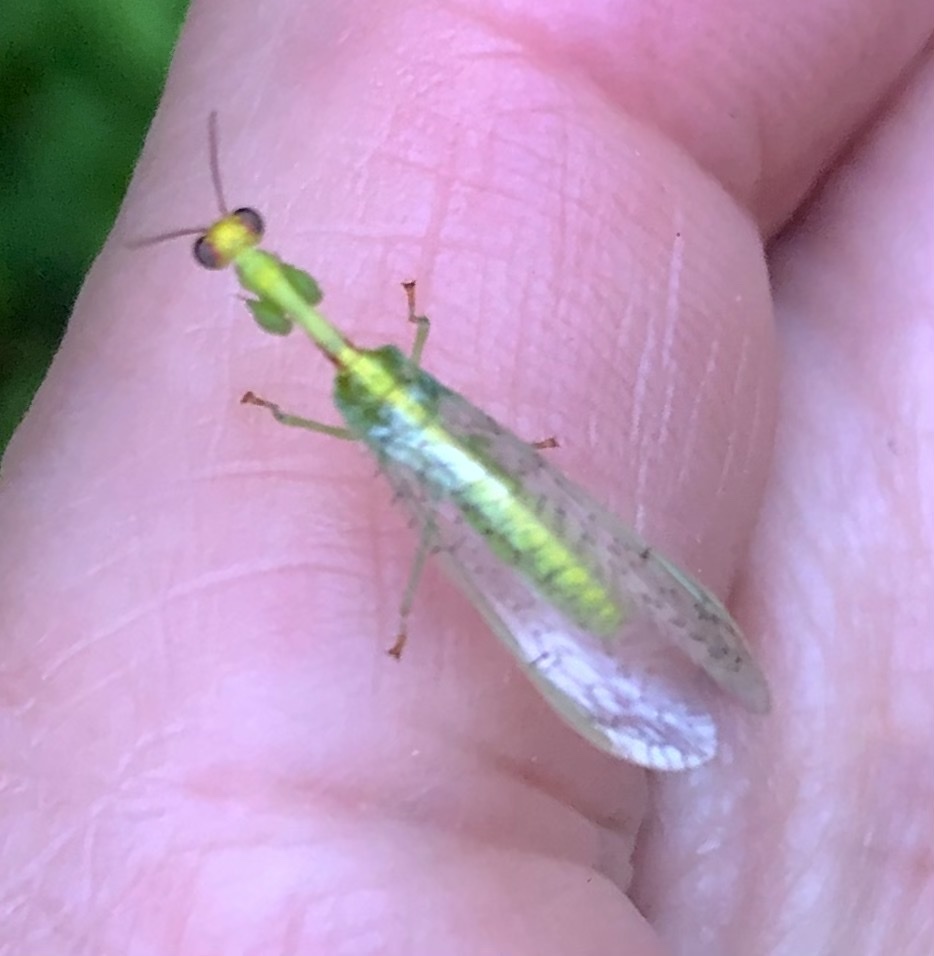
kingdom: Animalia
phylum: Arthropoda
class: Insecta
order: Neuroptera
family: Mantispidae
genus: Zeugomantispa
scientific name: Zeugomantispa minuta
